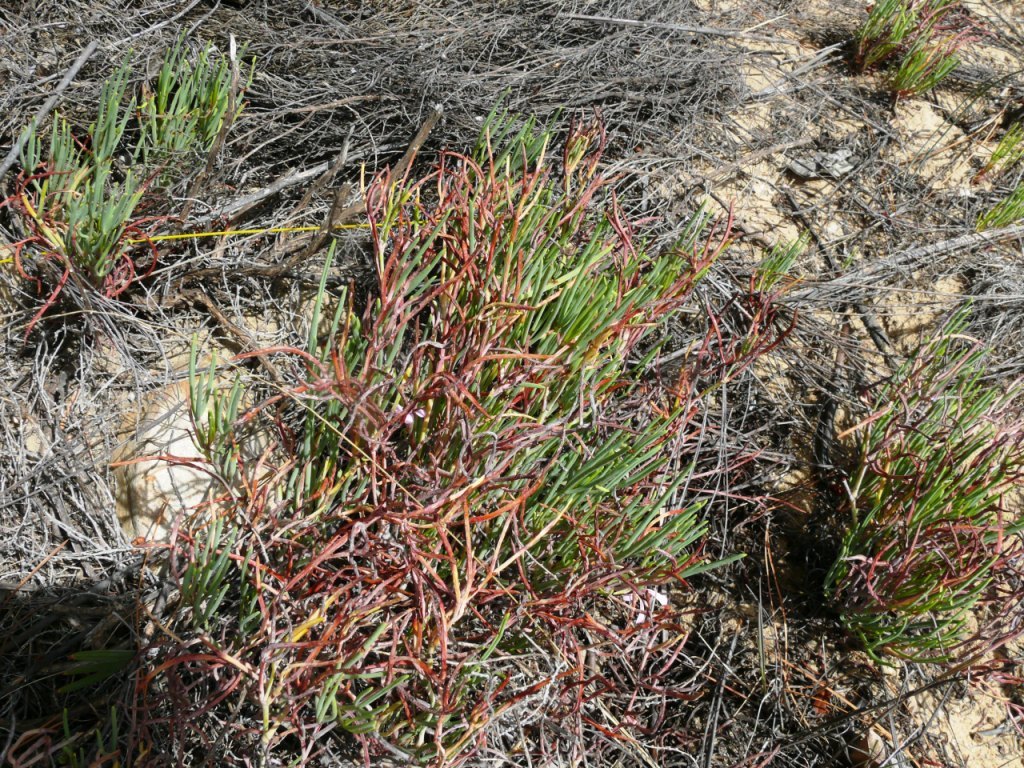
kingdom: Plantae
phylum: Tracheophyta
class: Magnoliopsida
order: Geraniales
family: Geraniaceae
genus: Pelargonium
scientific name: Pelargonium laevigatum
